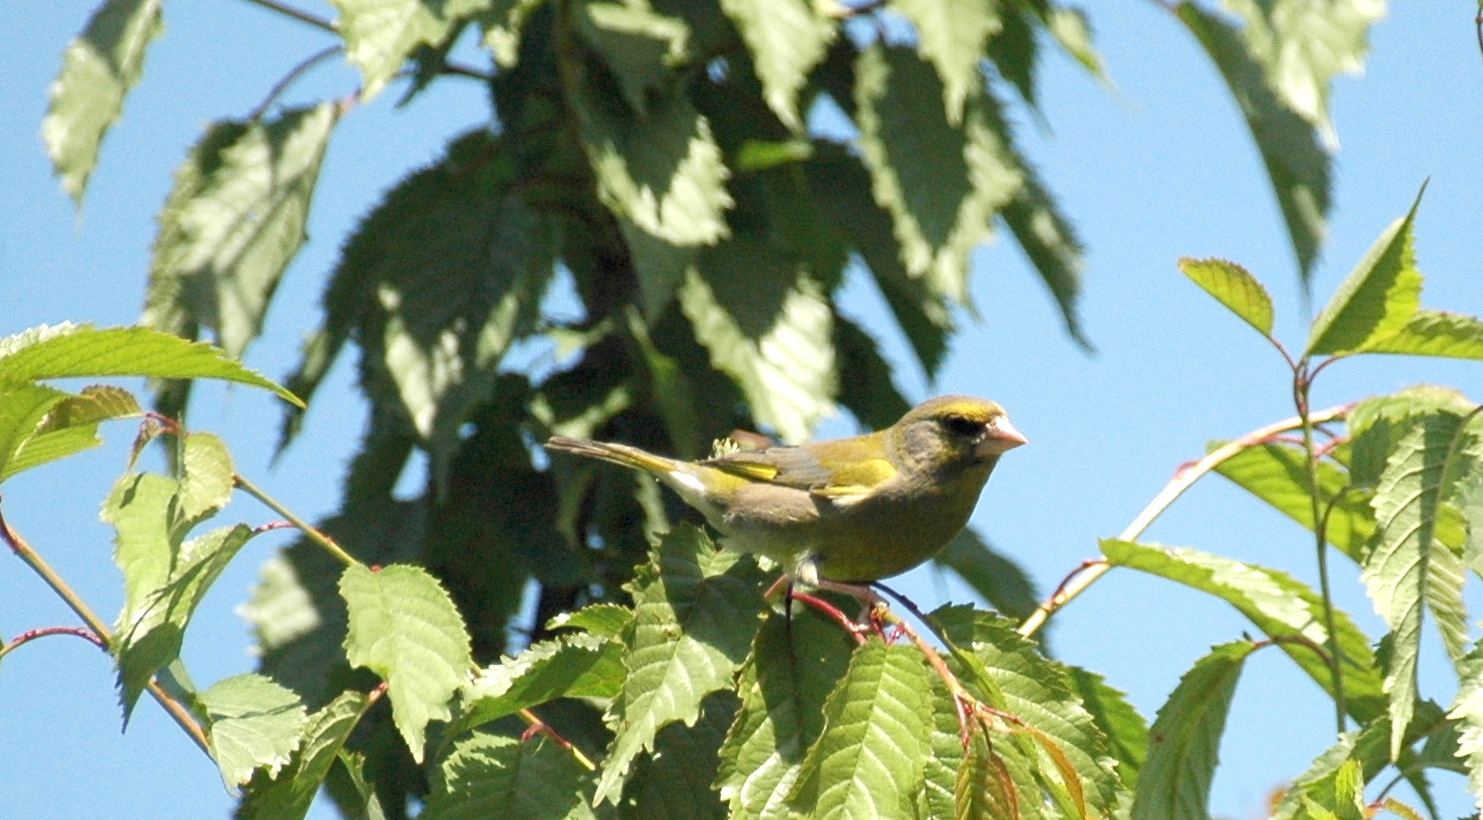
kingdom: Plantae
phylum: Tracheophyta
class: Liliopsida
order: Poales
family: Poaceae
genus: Chloris
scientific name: Chloris chloris
